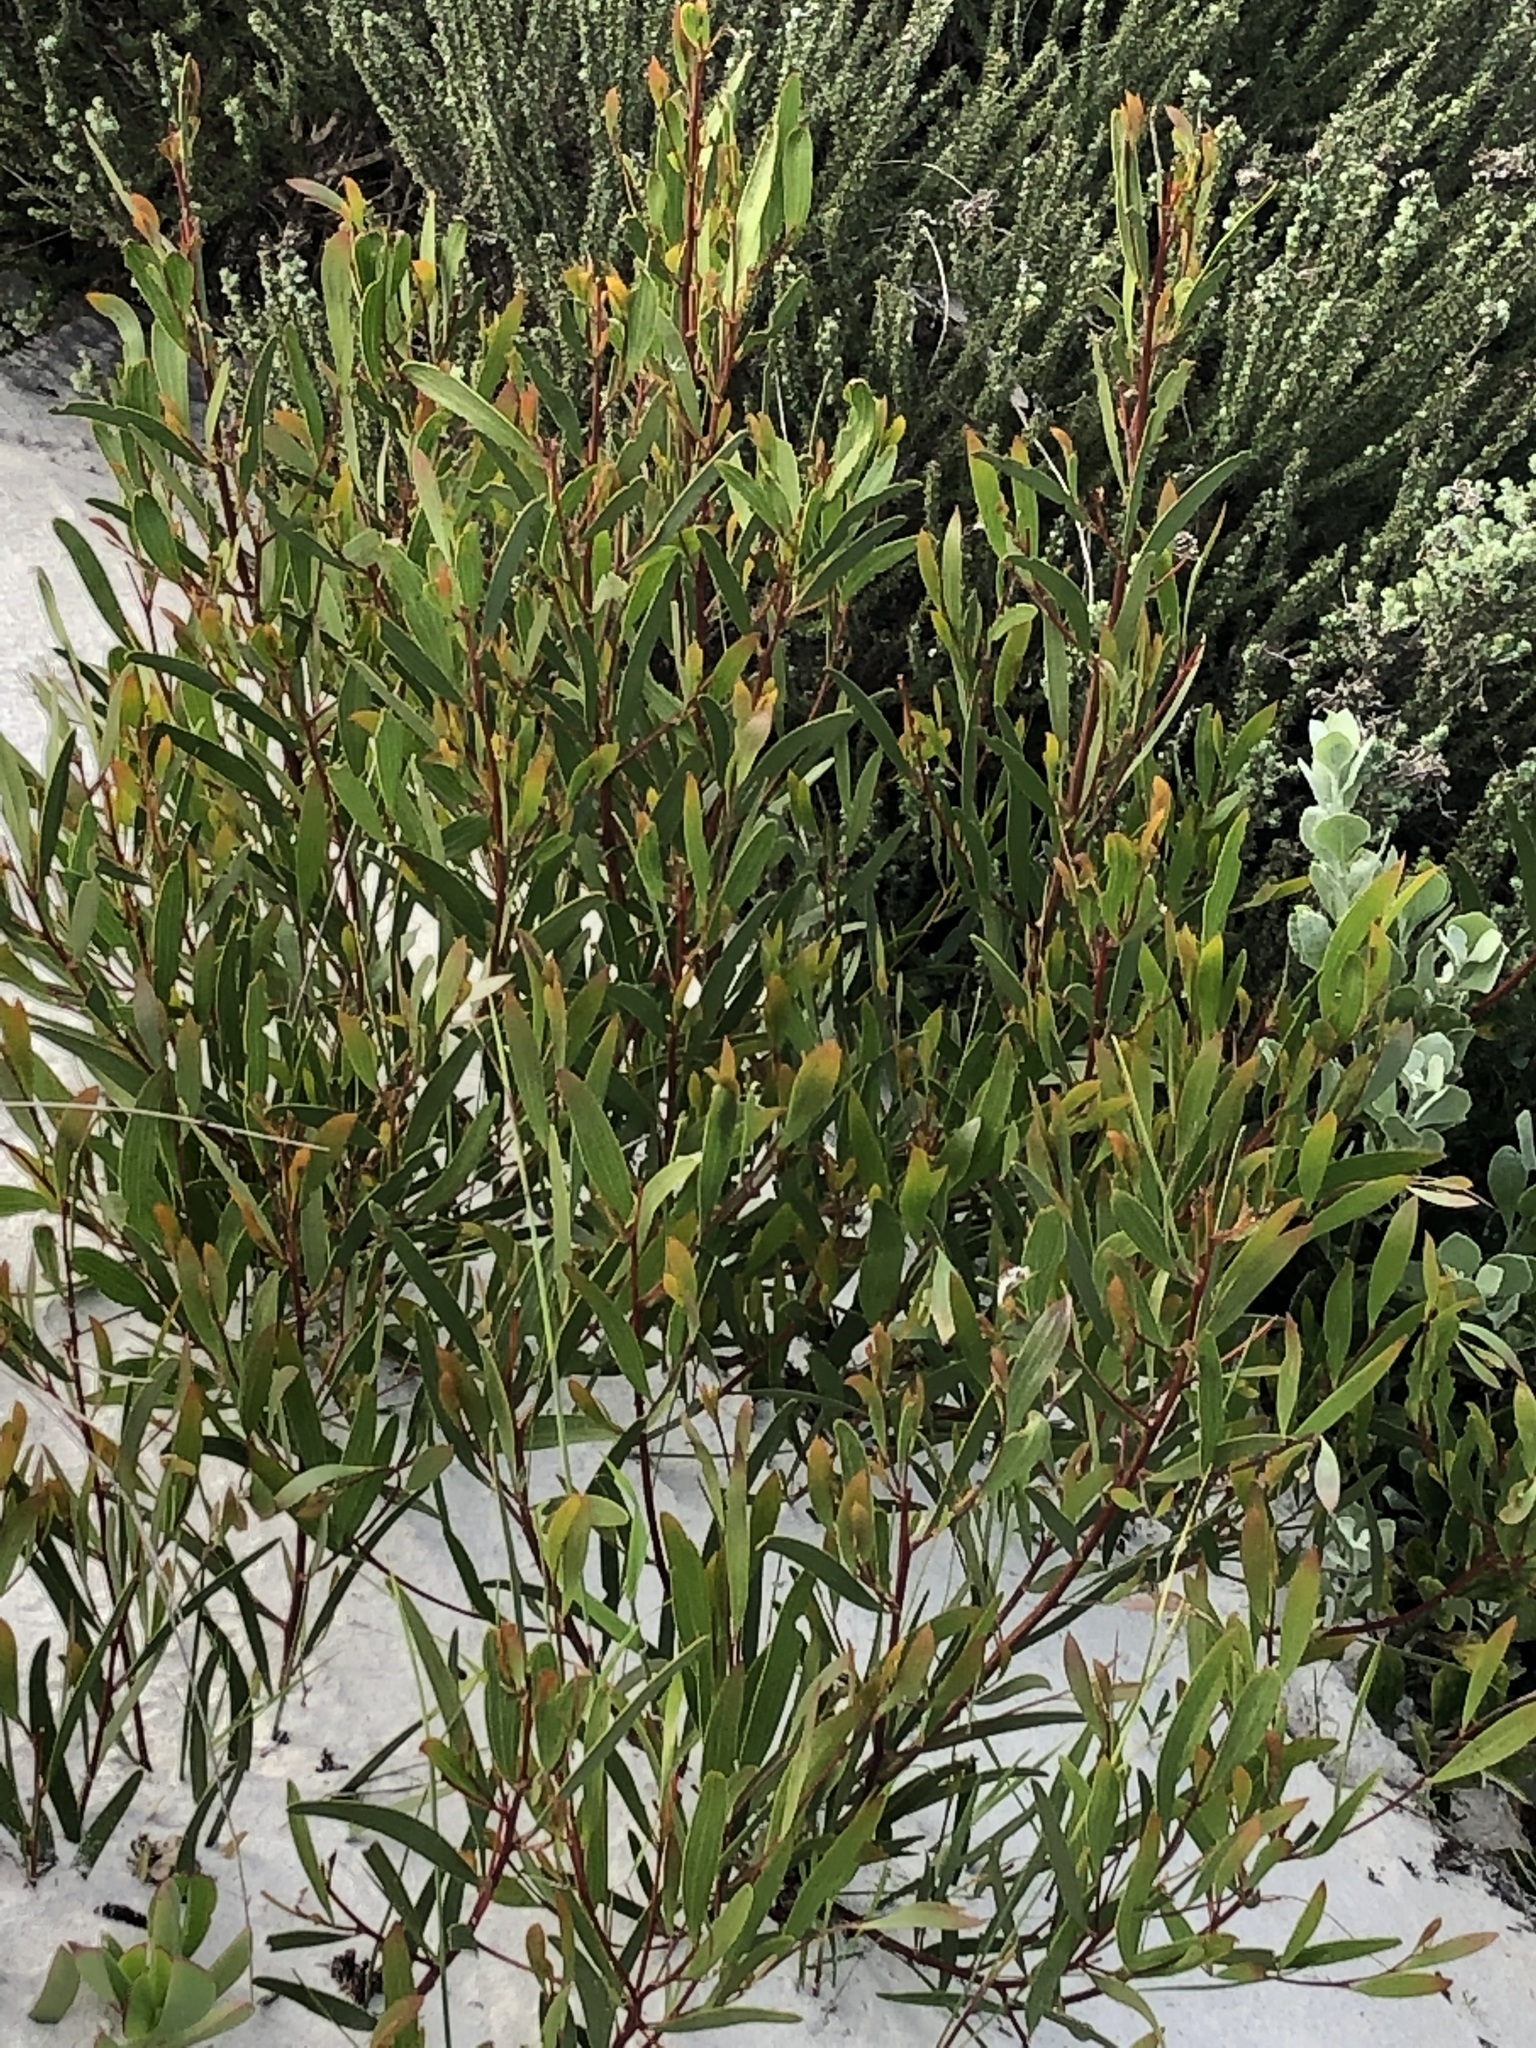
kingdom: Plantae
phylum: Tracheophyta
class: Magnoliopsida
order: Fabales
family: Fabaceae
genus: Acacia
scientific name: Acacia cyclops
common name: Coastal wattle
